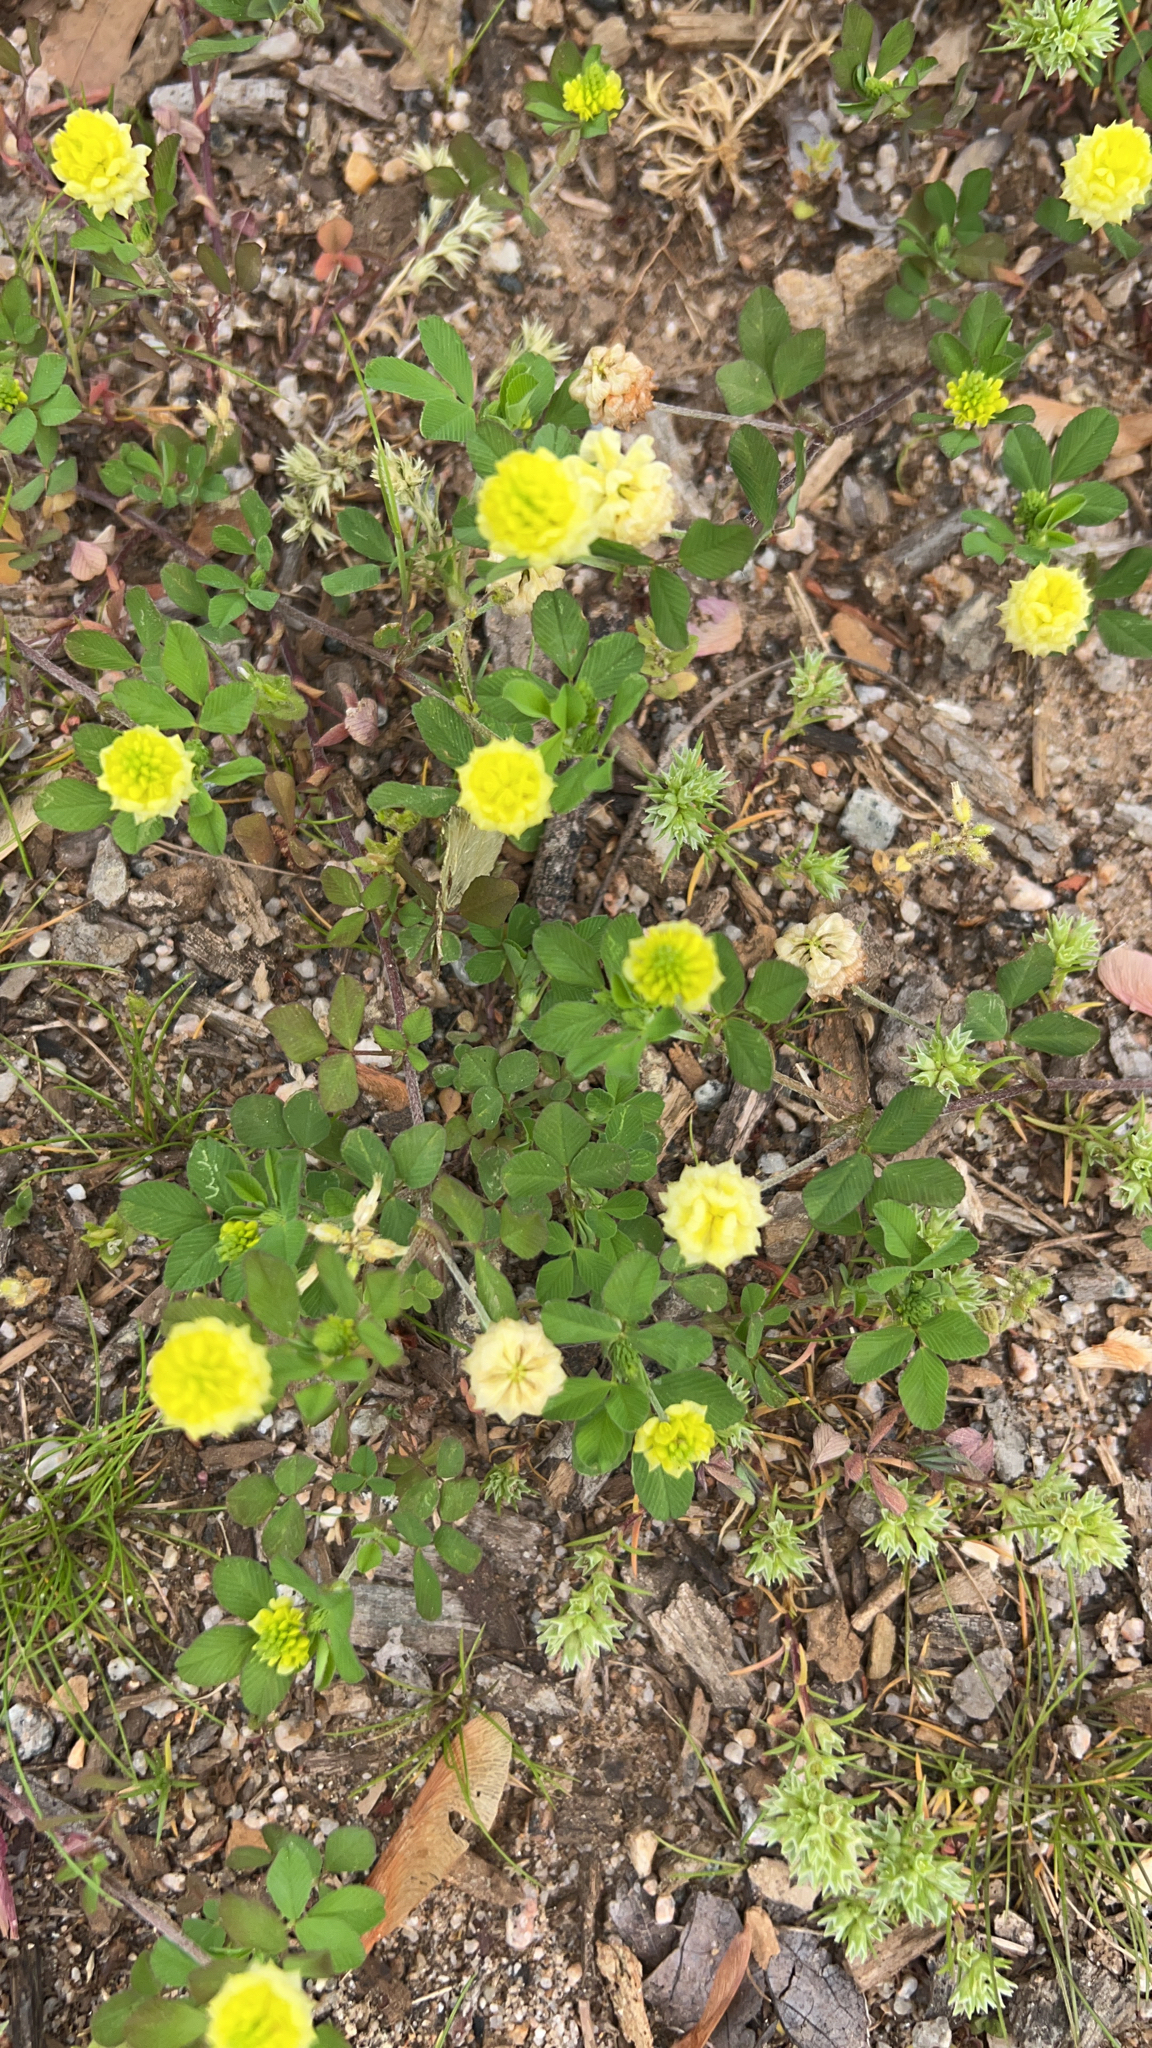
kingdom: Plantae
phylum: Tracheophyta
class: Magnoliopsida
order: Fabales
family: Fabaceae
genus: Trifolium
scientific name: Trifolium campestre
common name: Field clover
